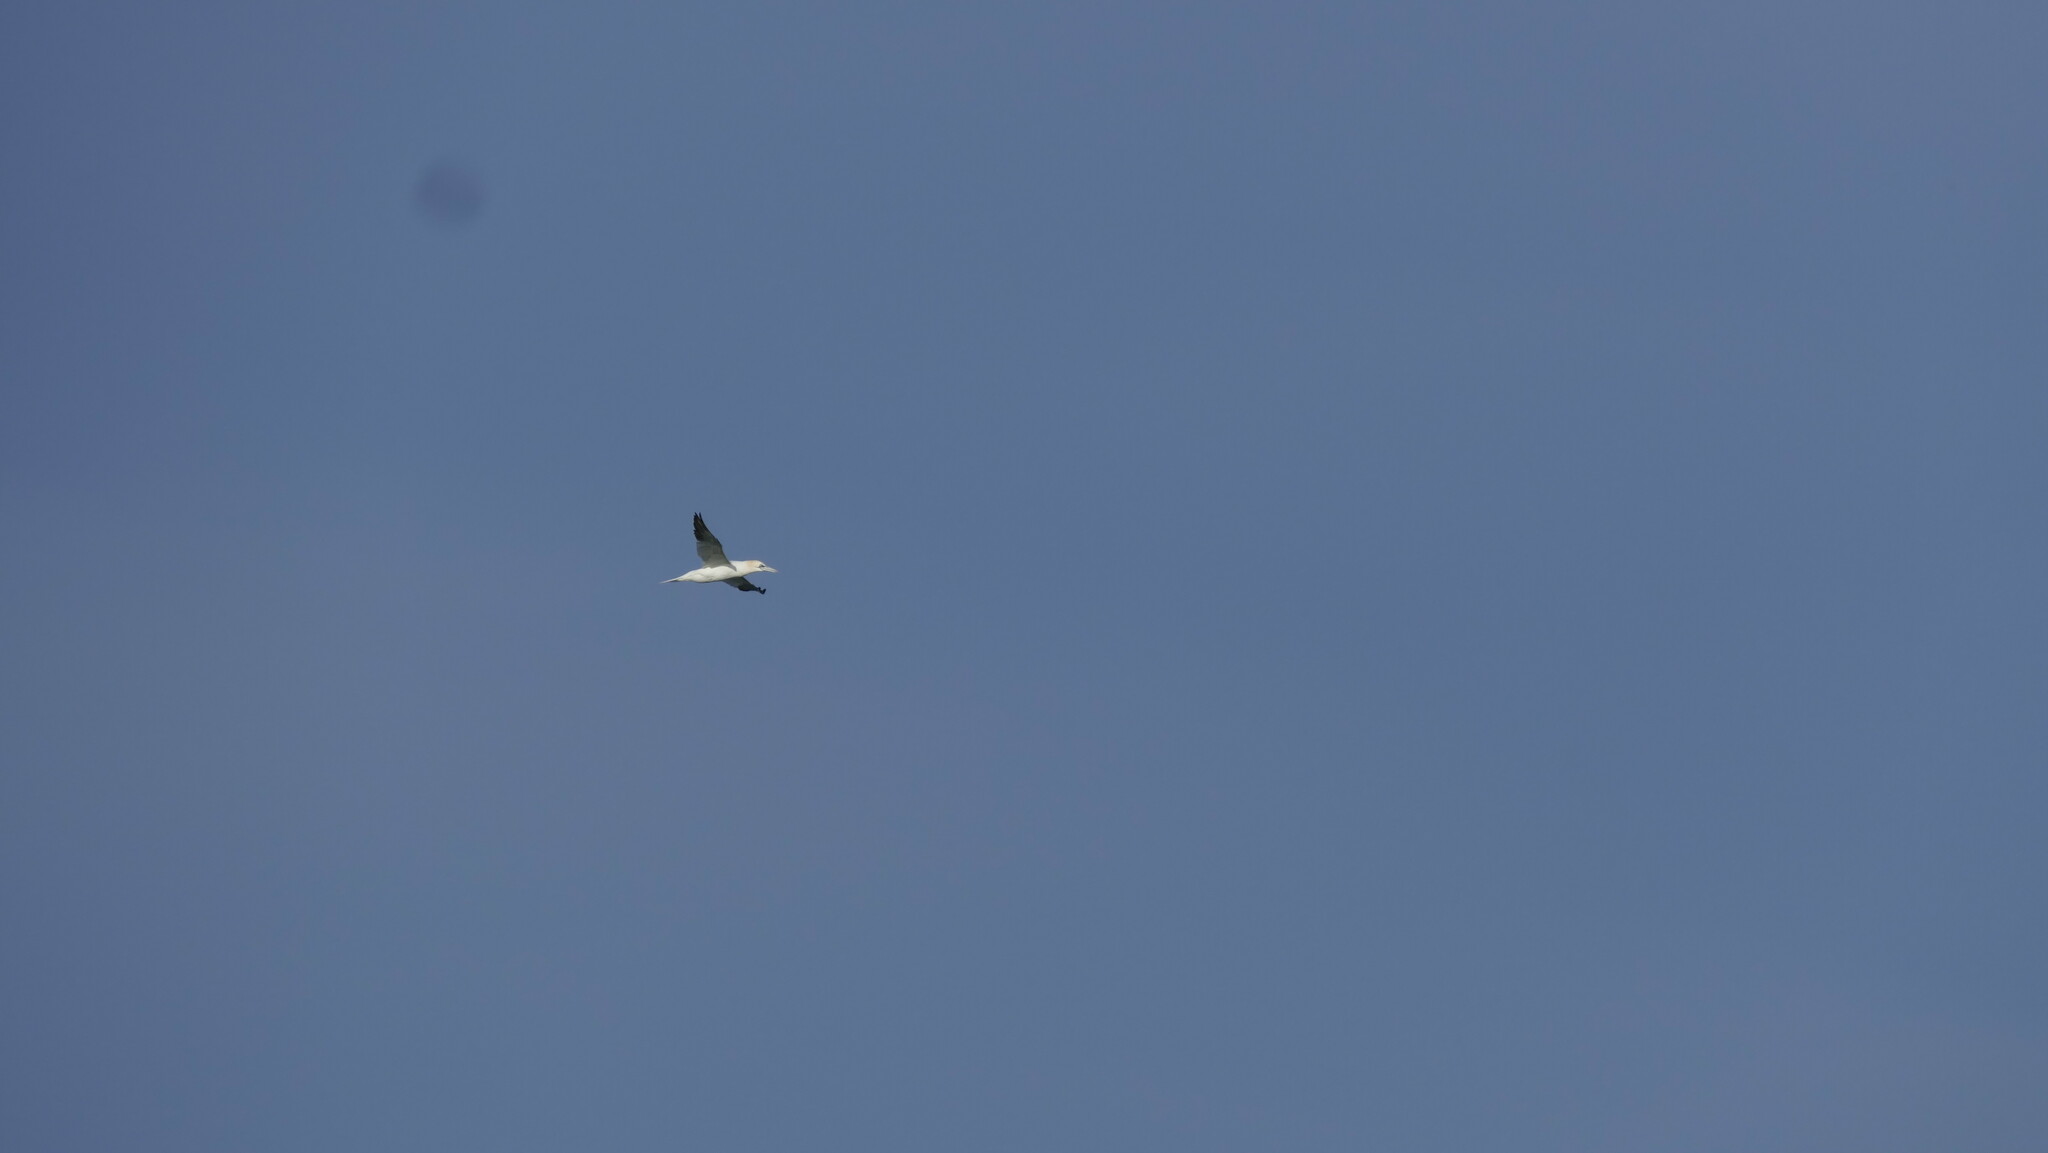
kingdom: Animalia
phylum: Chordata
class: Aves
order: Suliformes
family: Sulidae
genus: Morus
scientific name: Morus bassanus
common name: Northern gannet
